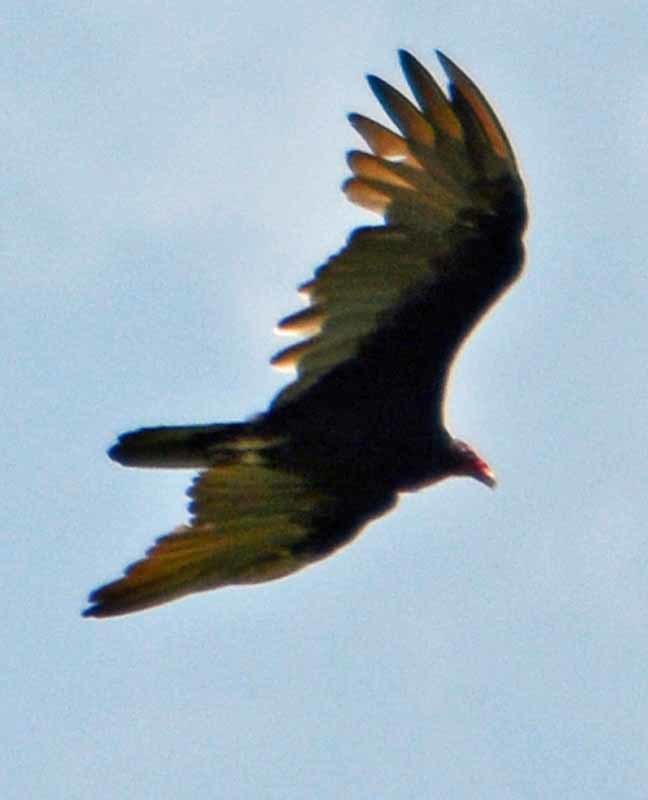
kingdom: Animalia
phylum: Chordata
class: Aves
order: Accipitriformes
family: Cathartidae
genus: Cathartes
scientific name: Cathartes burrovianus
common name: Lesser yellow-headed vulture
